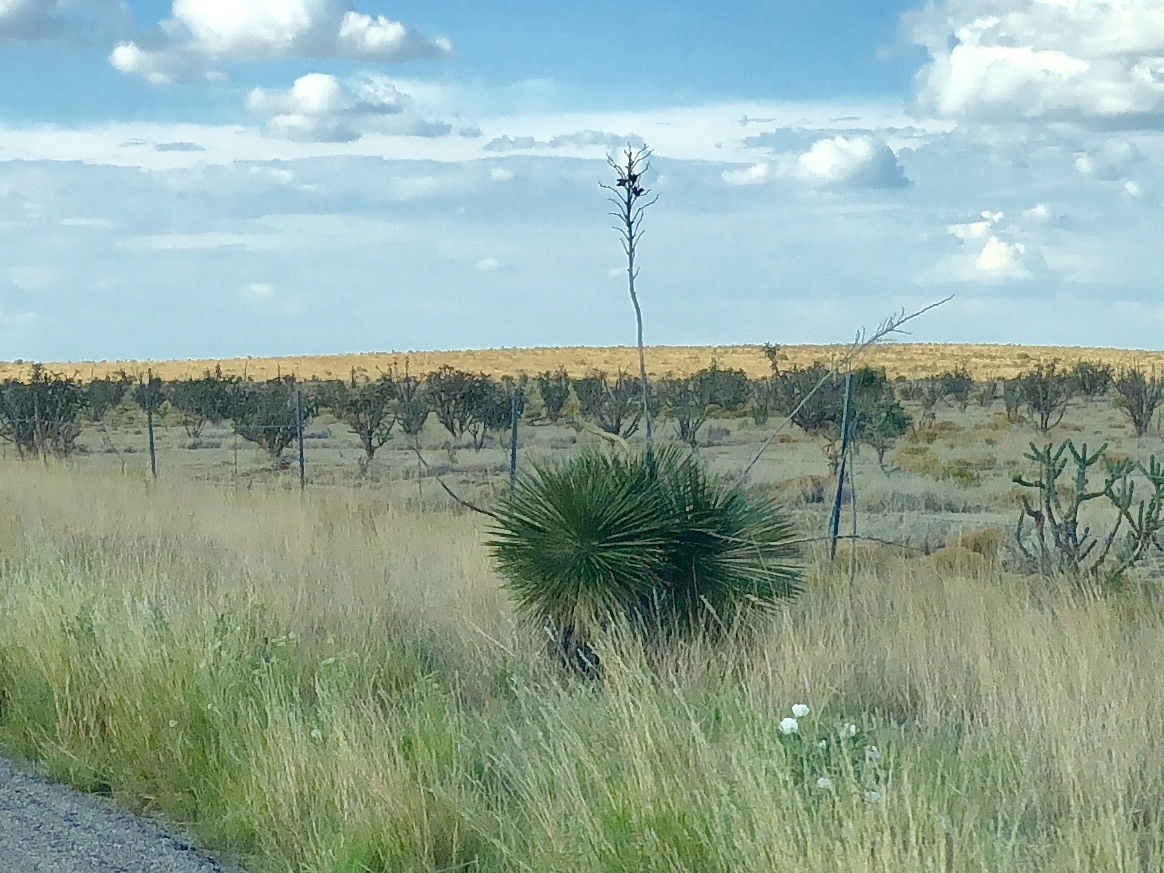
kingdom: Plantae
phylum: Tracheophyta
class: Liliopsida
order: Asparagales
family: Asparagaceae
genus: Yucca
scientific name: Yucca elata
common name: Palmella
